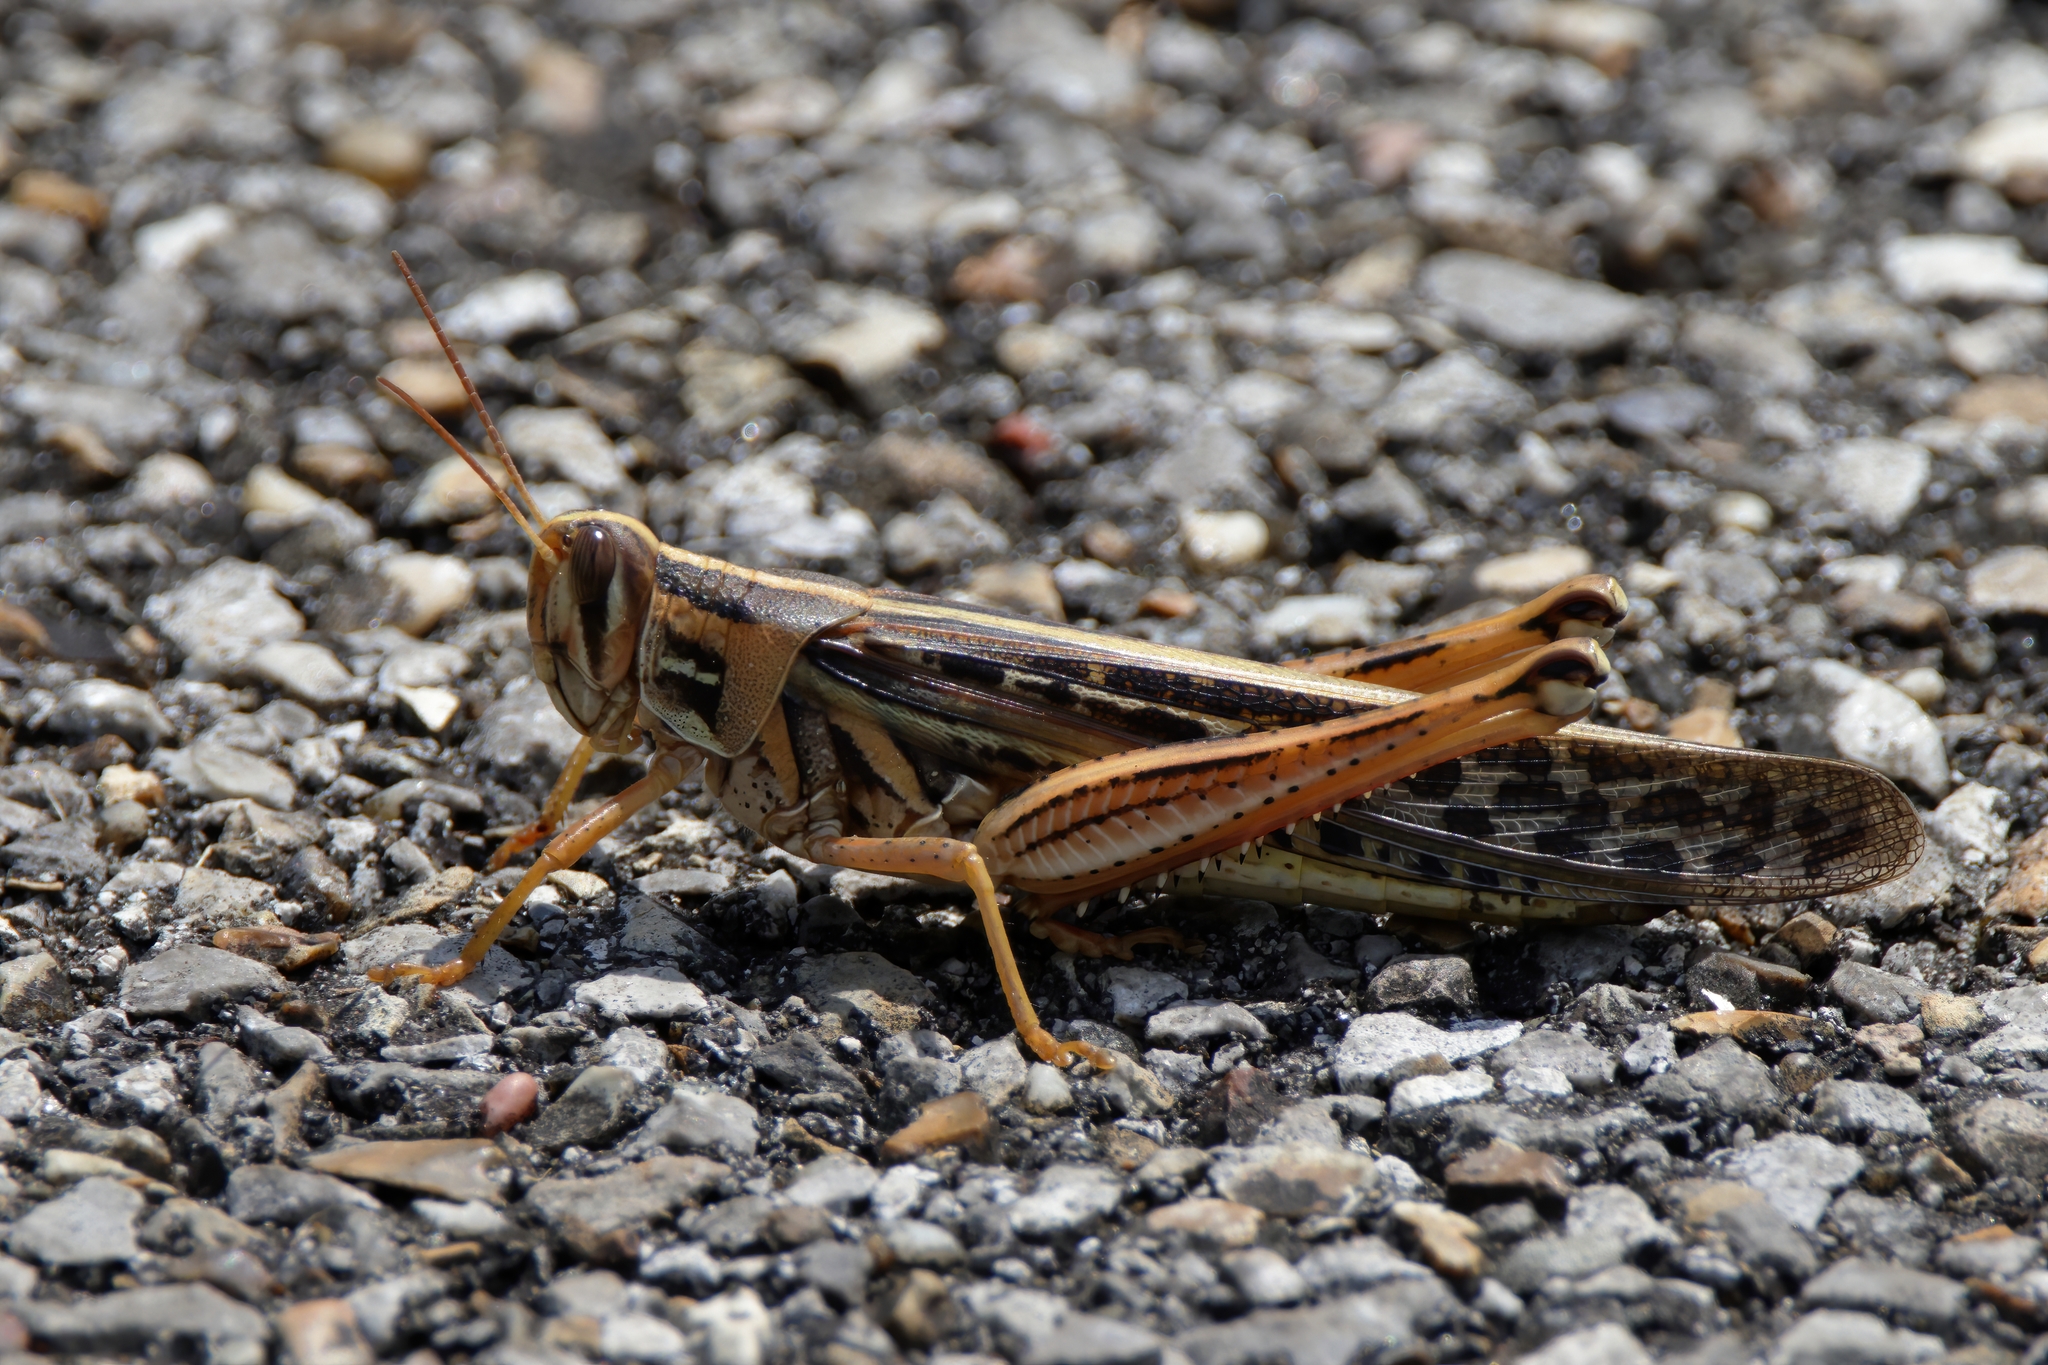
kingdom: Animalia
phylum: Arthropoda
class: Insecta
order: Orthoptera
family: Acrididae
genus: Schistocerca
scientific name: Schistocerca americana
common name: American bird locust
